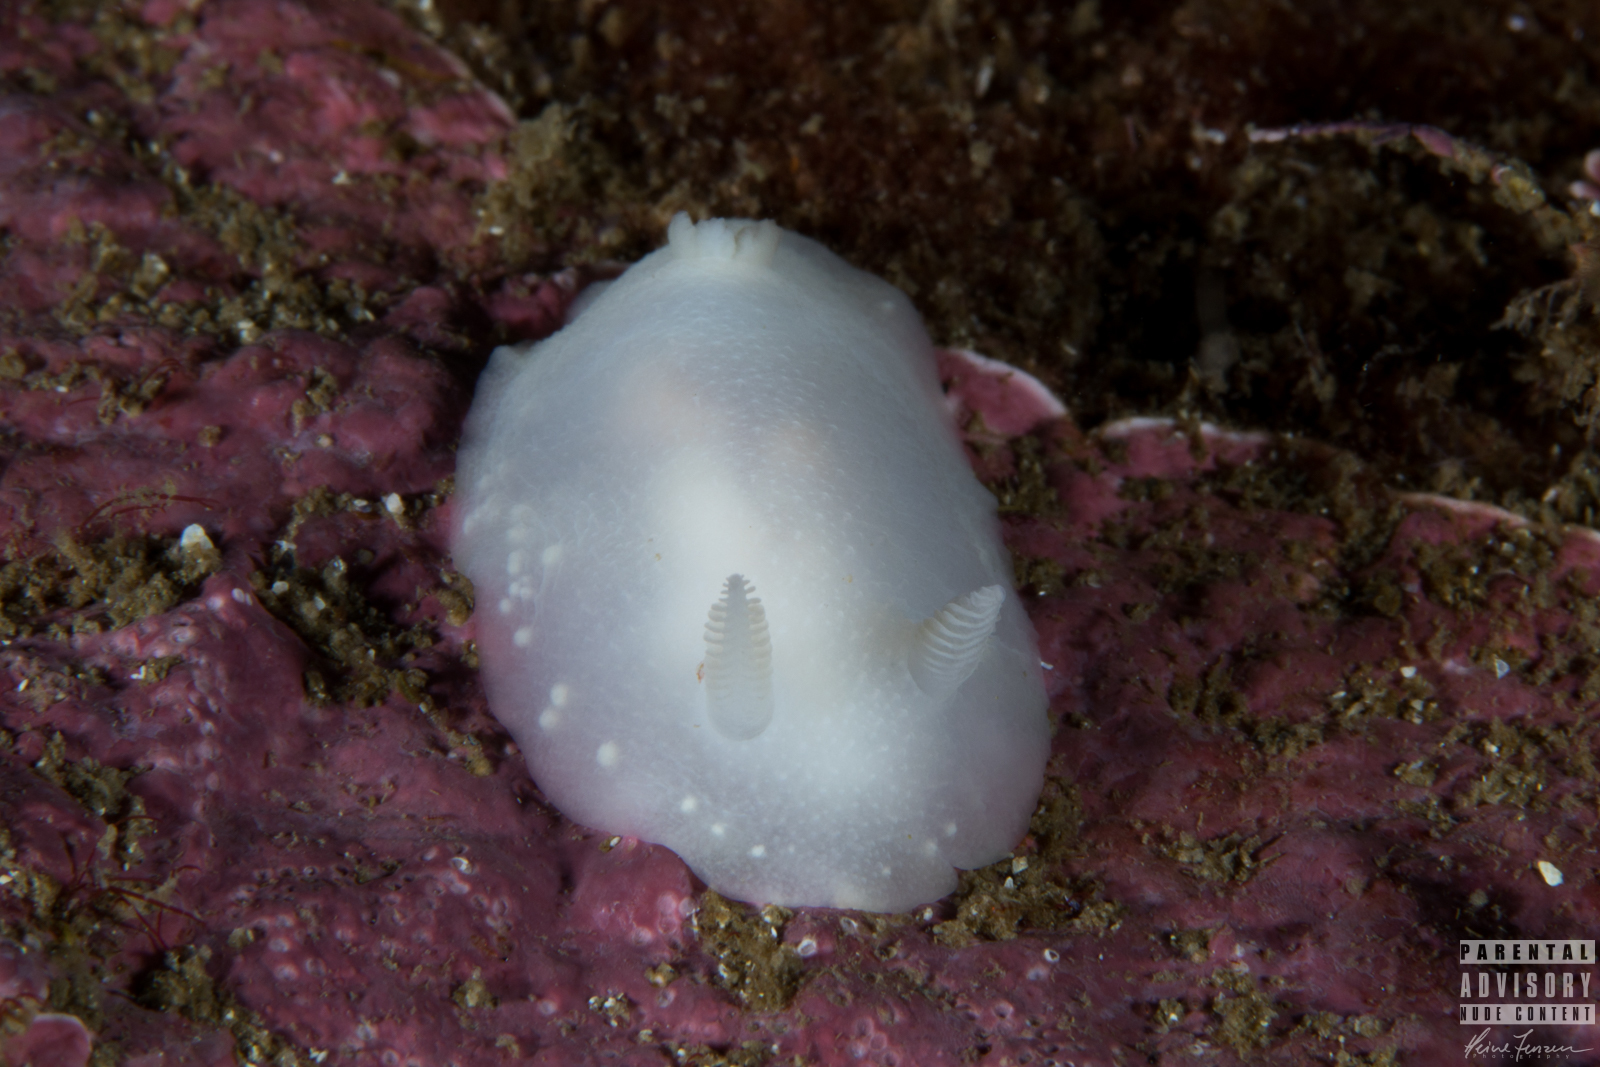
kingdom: Animalia
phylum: Mollusca
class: Gastropoda
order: Nudibranchia
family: Cadlinidae
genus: Cadlina
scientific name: Cadlina laevis
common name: White atlantic cadlina
